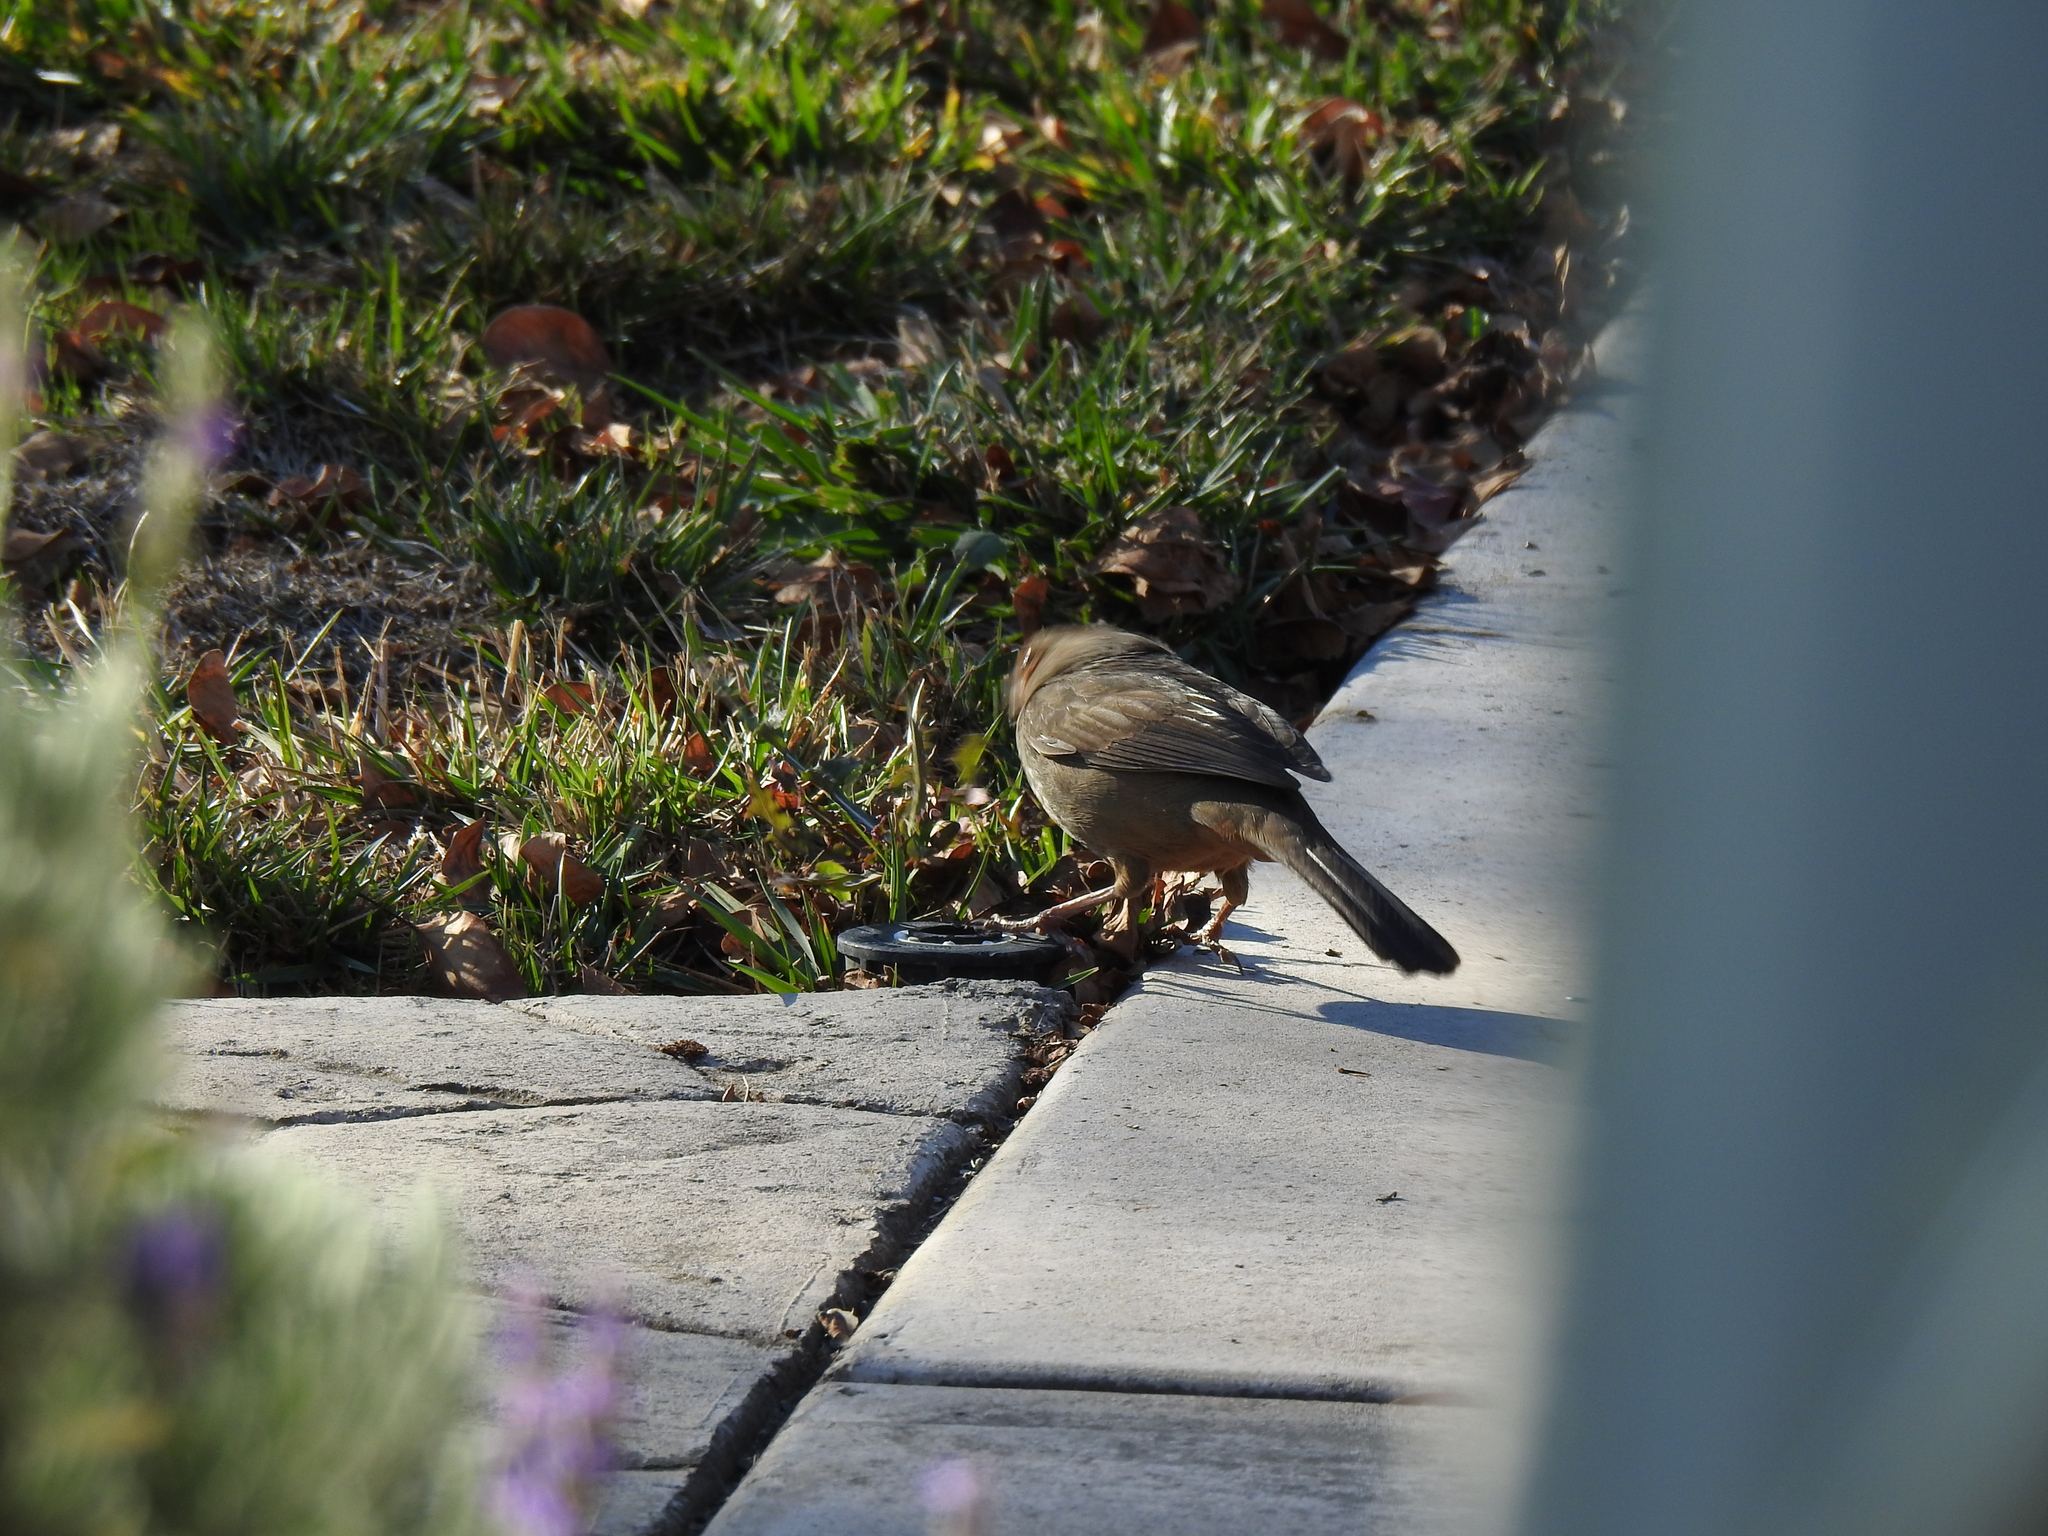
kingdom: Animalia
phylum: Chordata
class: Aves
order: Passeriformes
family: Passerellidae
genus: Melozone
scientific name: Melozone crissalis
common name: California towhee
